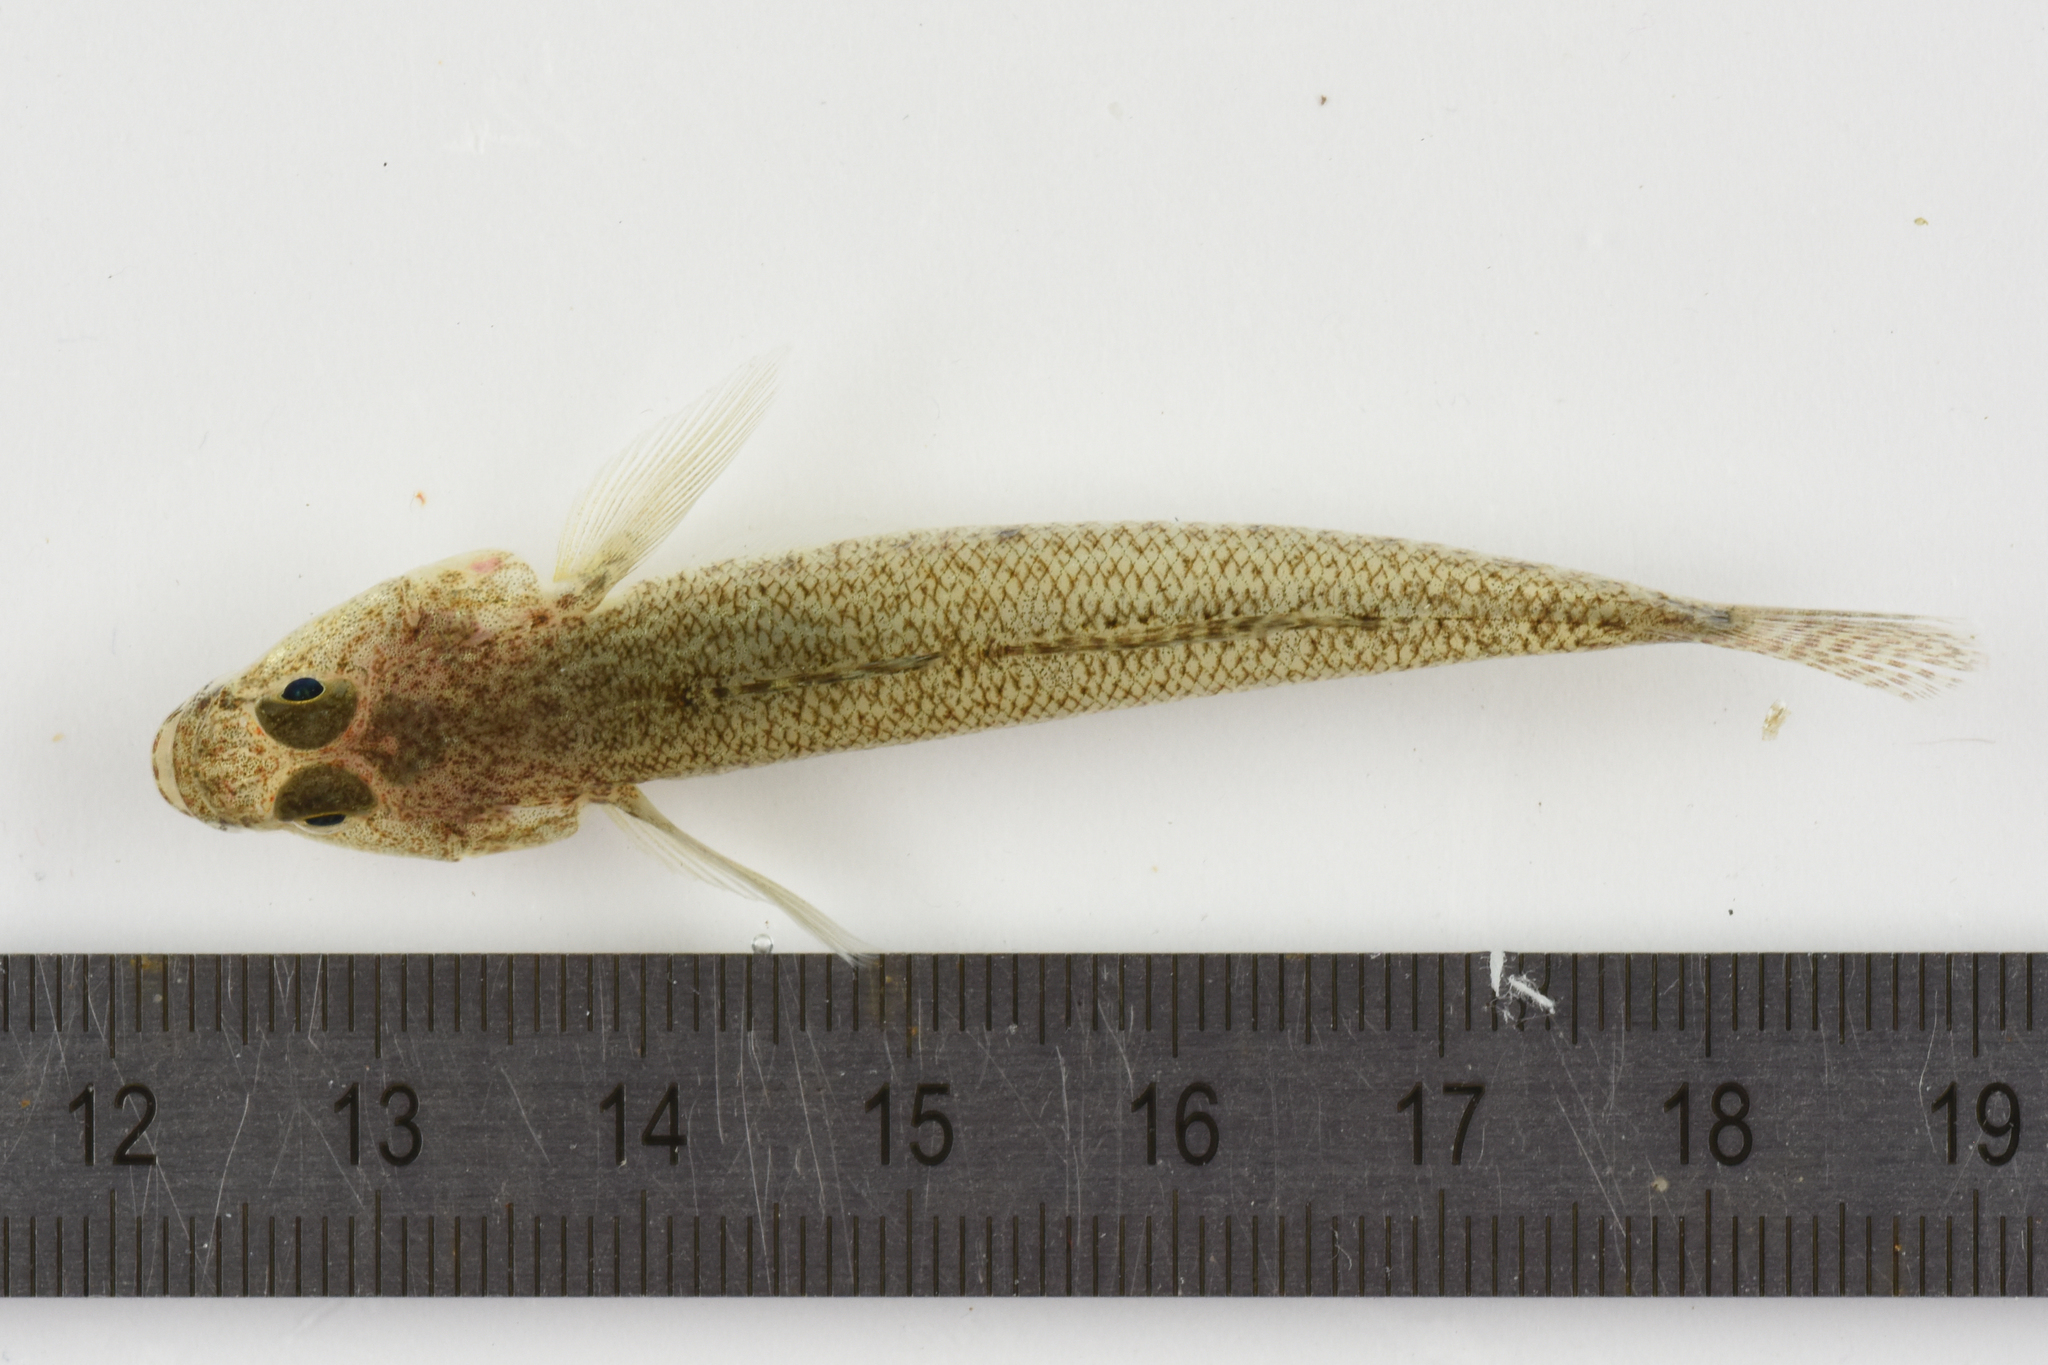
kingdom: Animalia
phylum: Chordata
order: Perciformes
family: Gobiidae
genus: Pomatoschistus
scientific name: Pomatoschistus minutus
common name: Sand goby
